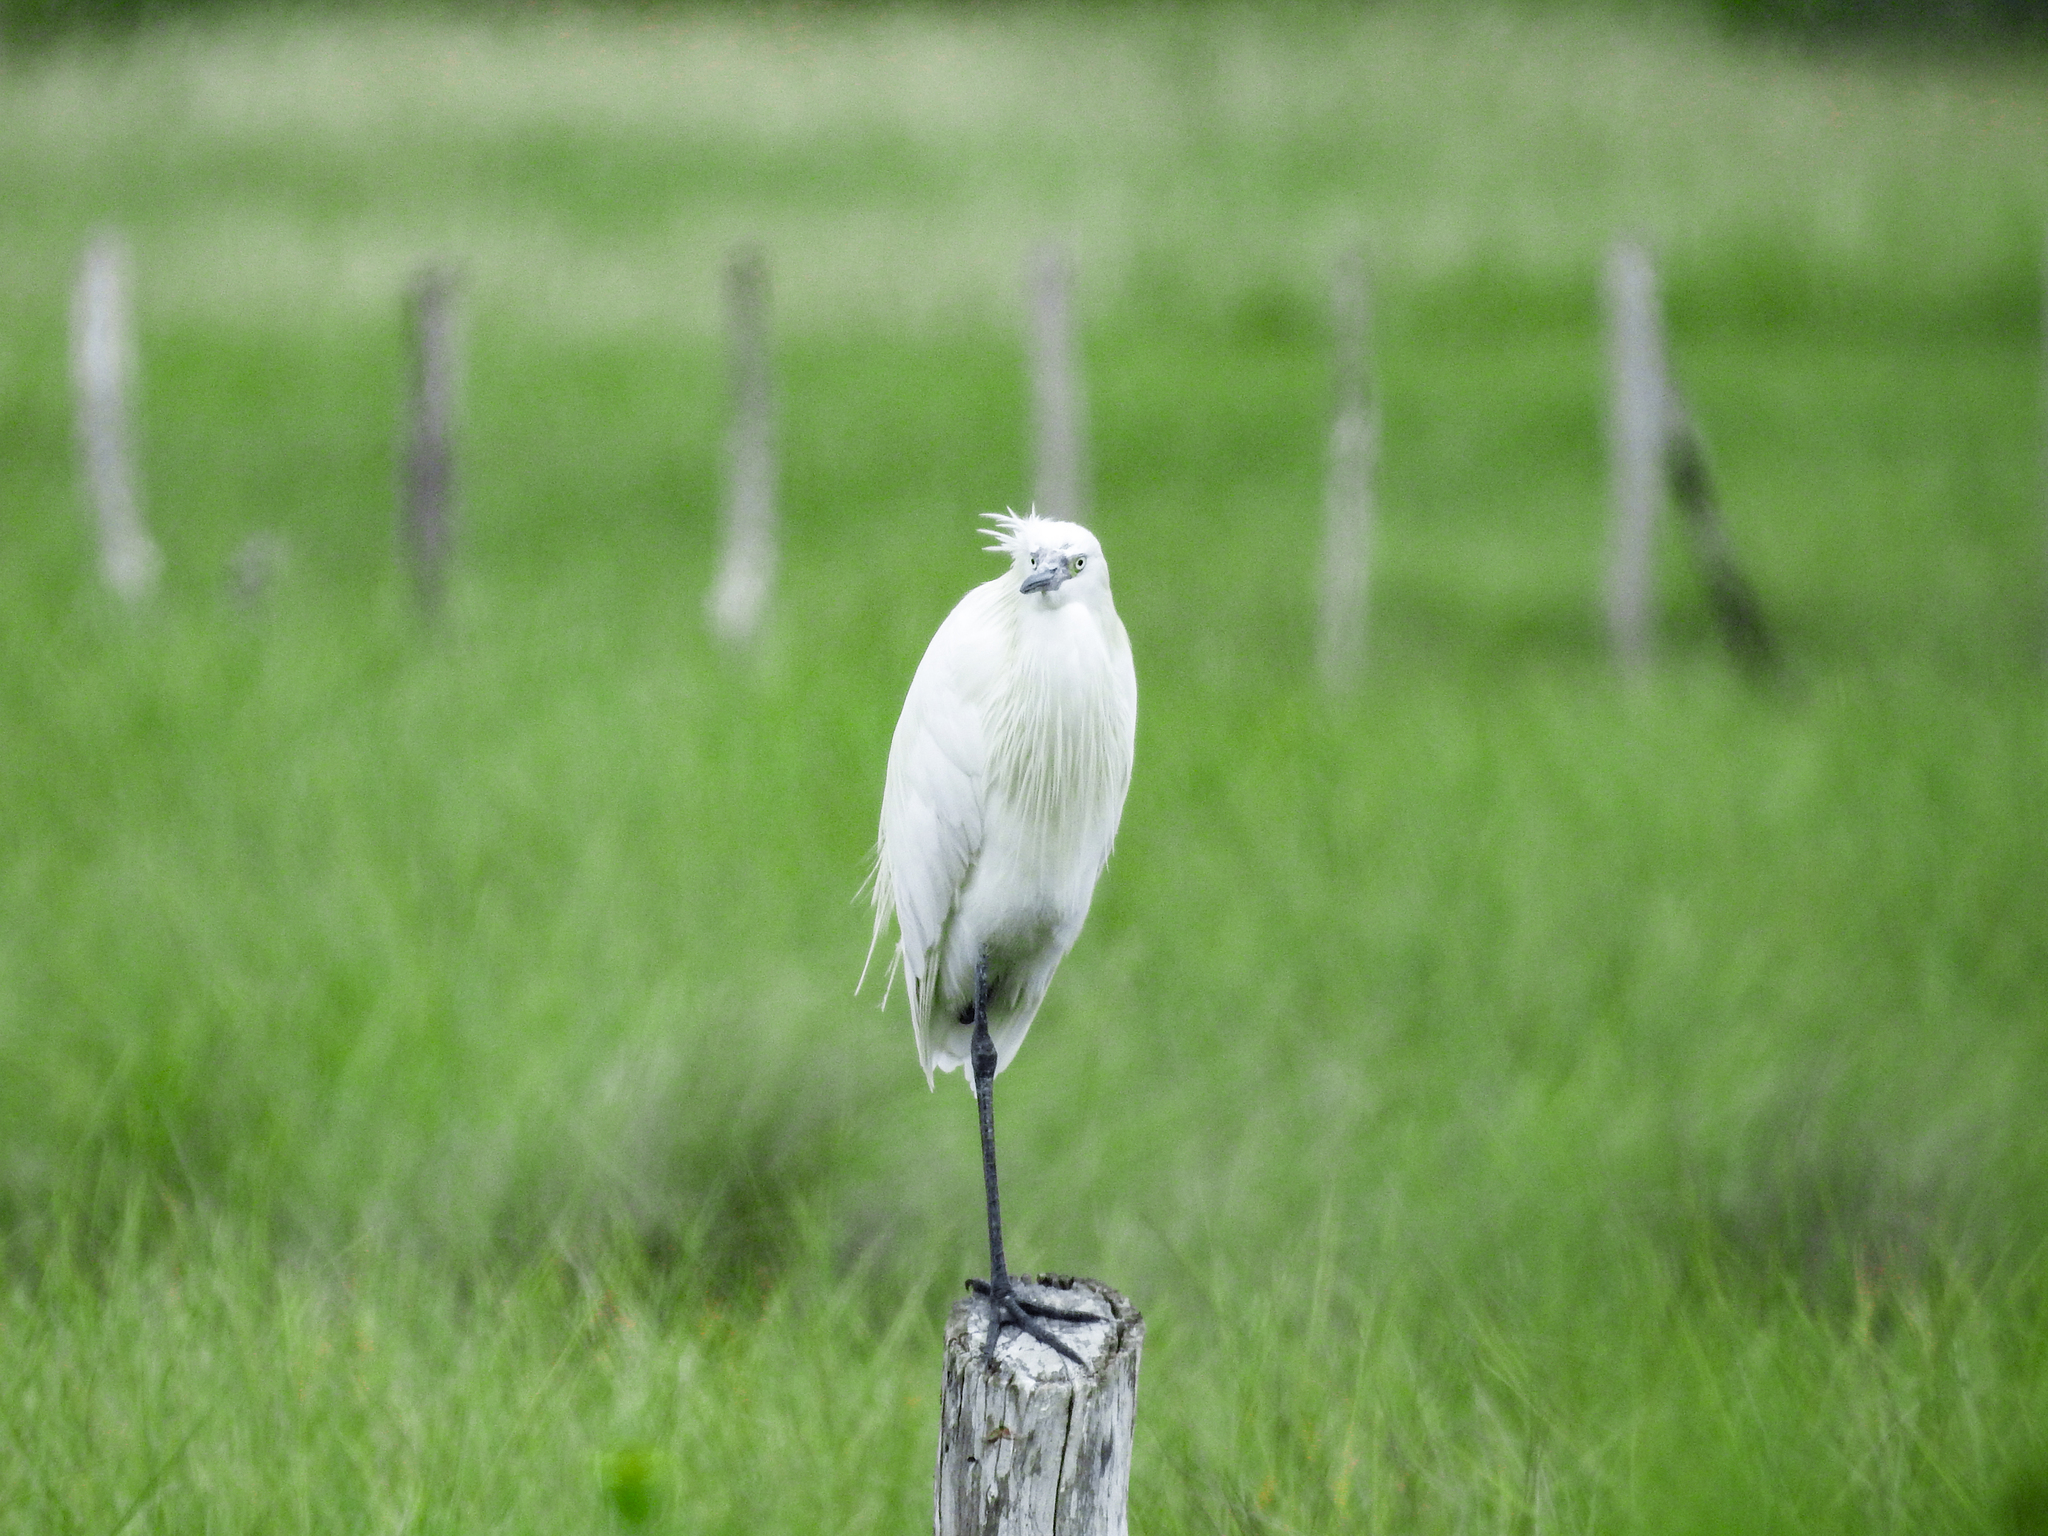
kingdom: Animalia
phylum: Chordata
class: Aves
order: Pelecaniformes
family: Ardeidae
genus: Egretta
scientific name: Egretta rufescens
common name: Reddish egret
